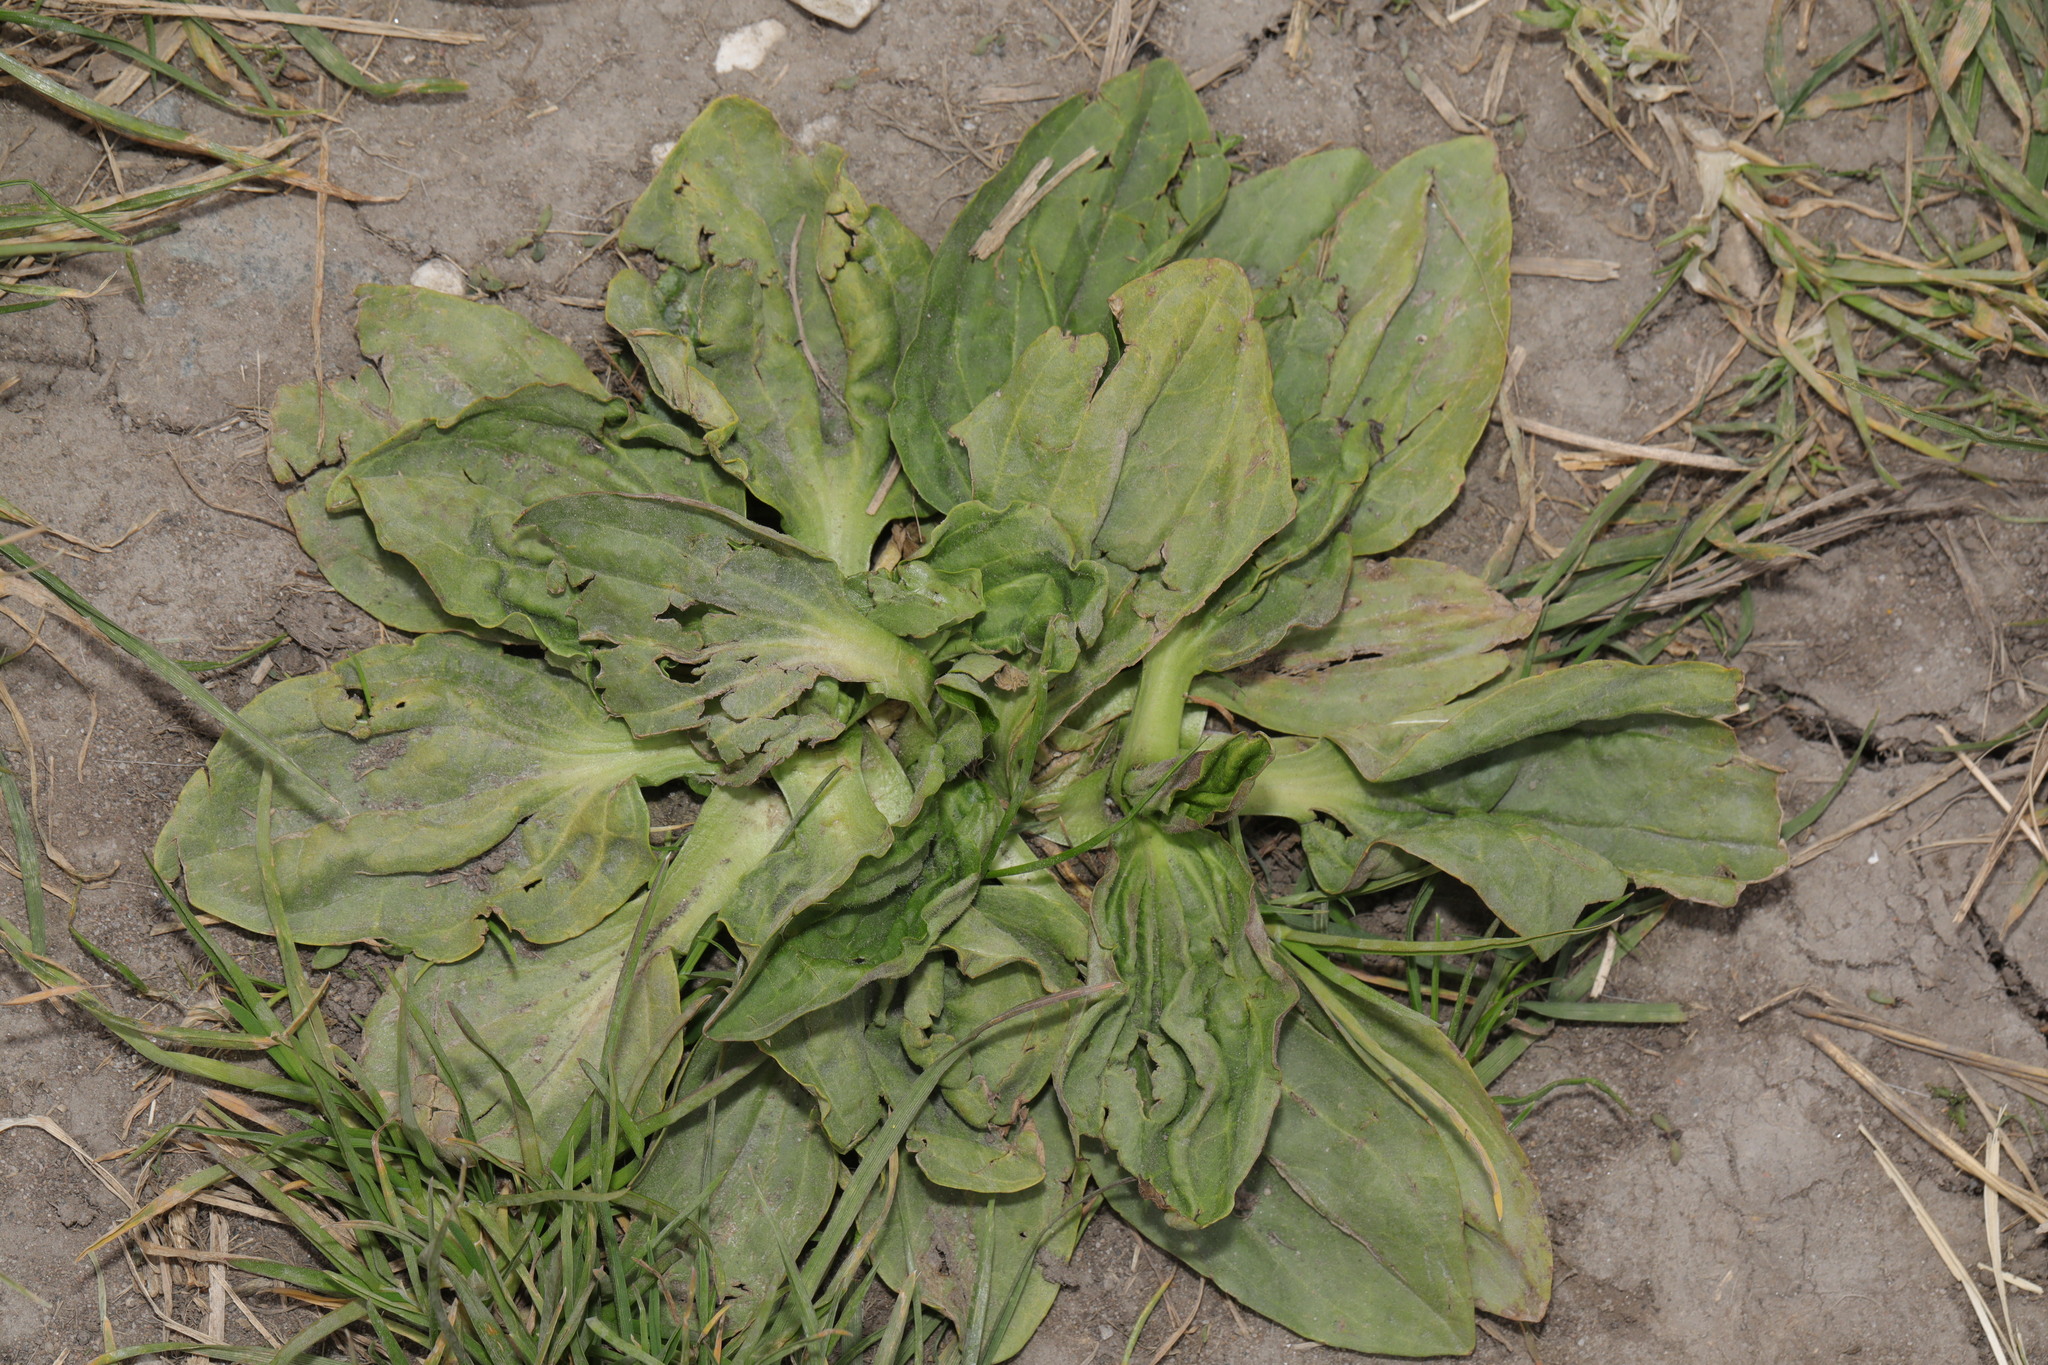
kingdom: Plantae
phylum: Tracheophyta
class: Magnoliopsida
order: Lamiales
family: Plantaginaceae
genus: Plantago
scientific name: Plantago major
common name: Common plantain
